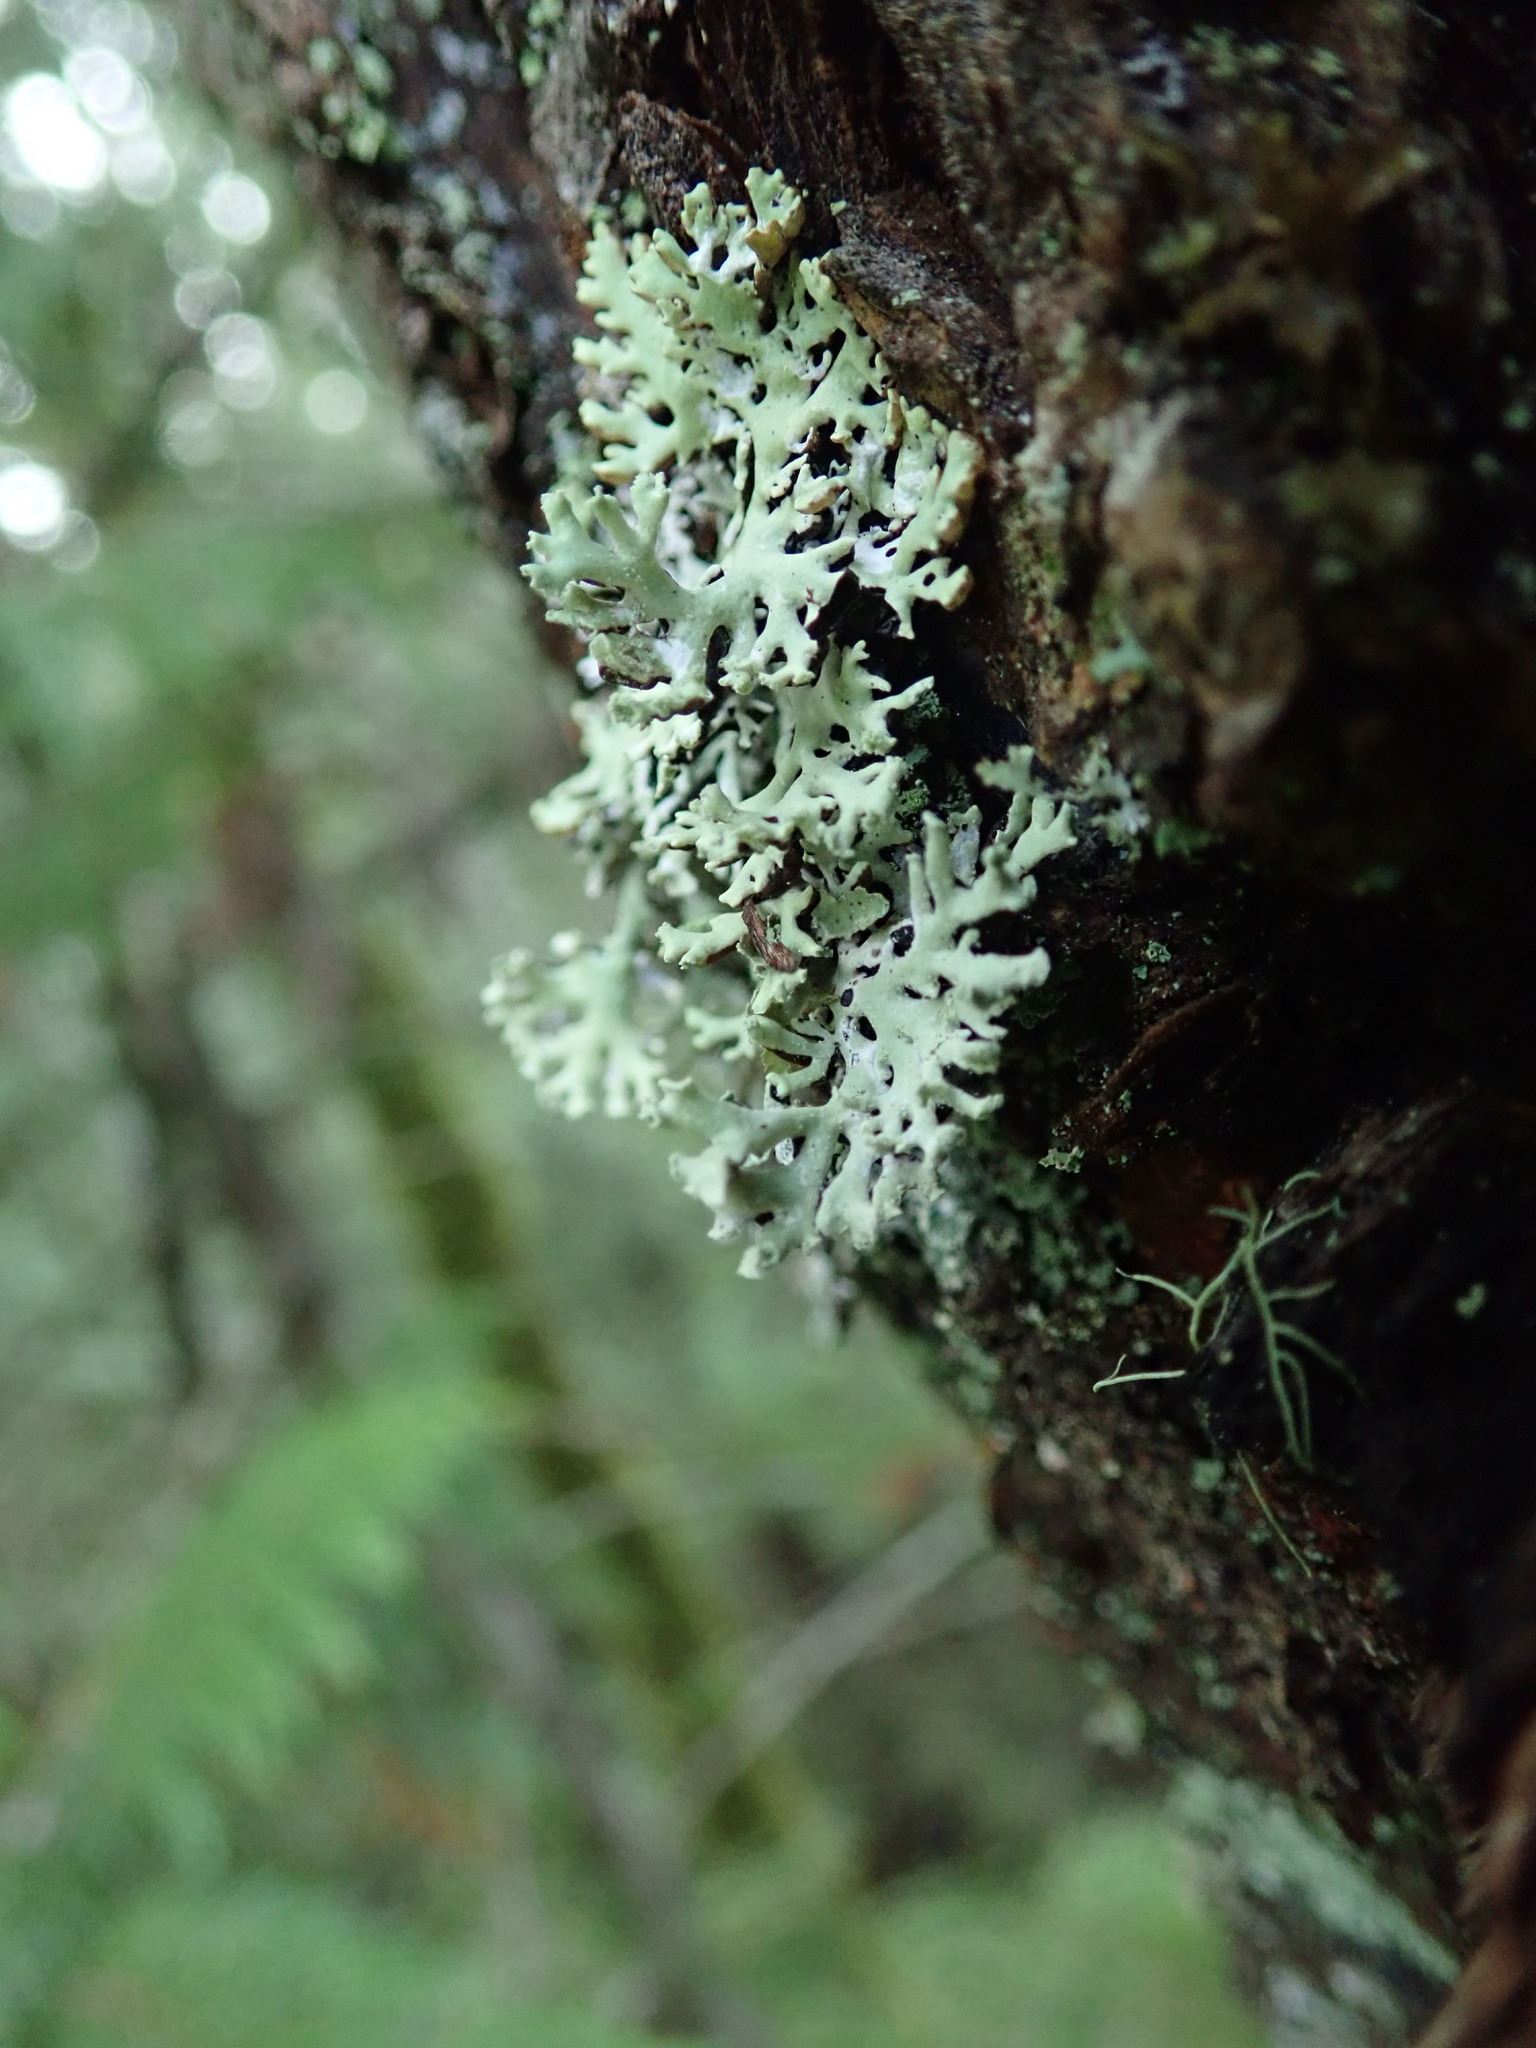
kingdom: Fungi
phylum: Ascomycota
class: Lecanoromycetes
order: Lecanorales
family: Parmeliaceae
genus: Hypogymnia
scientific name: Hypogymnia physodes
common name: Dark crottle
